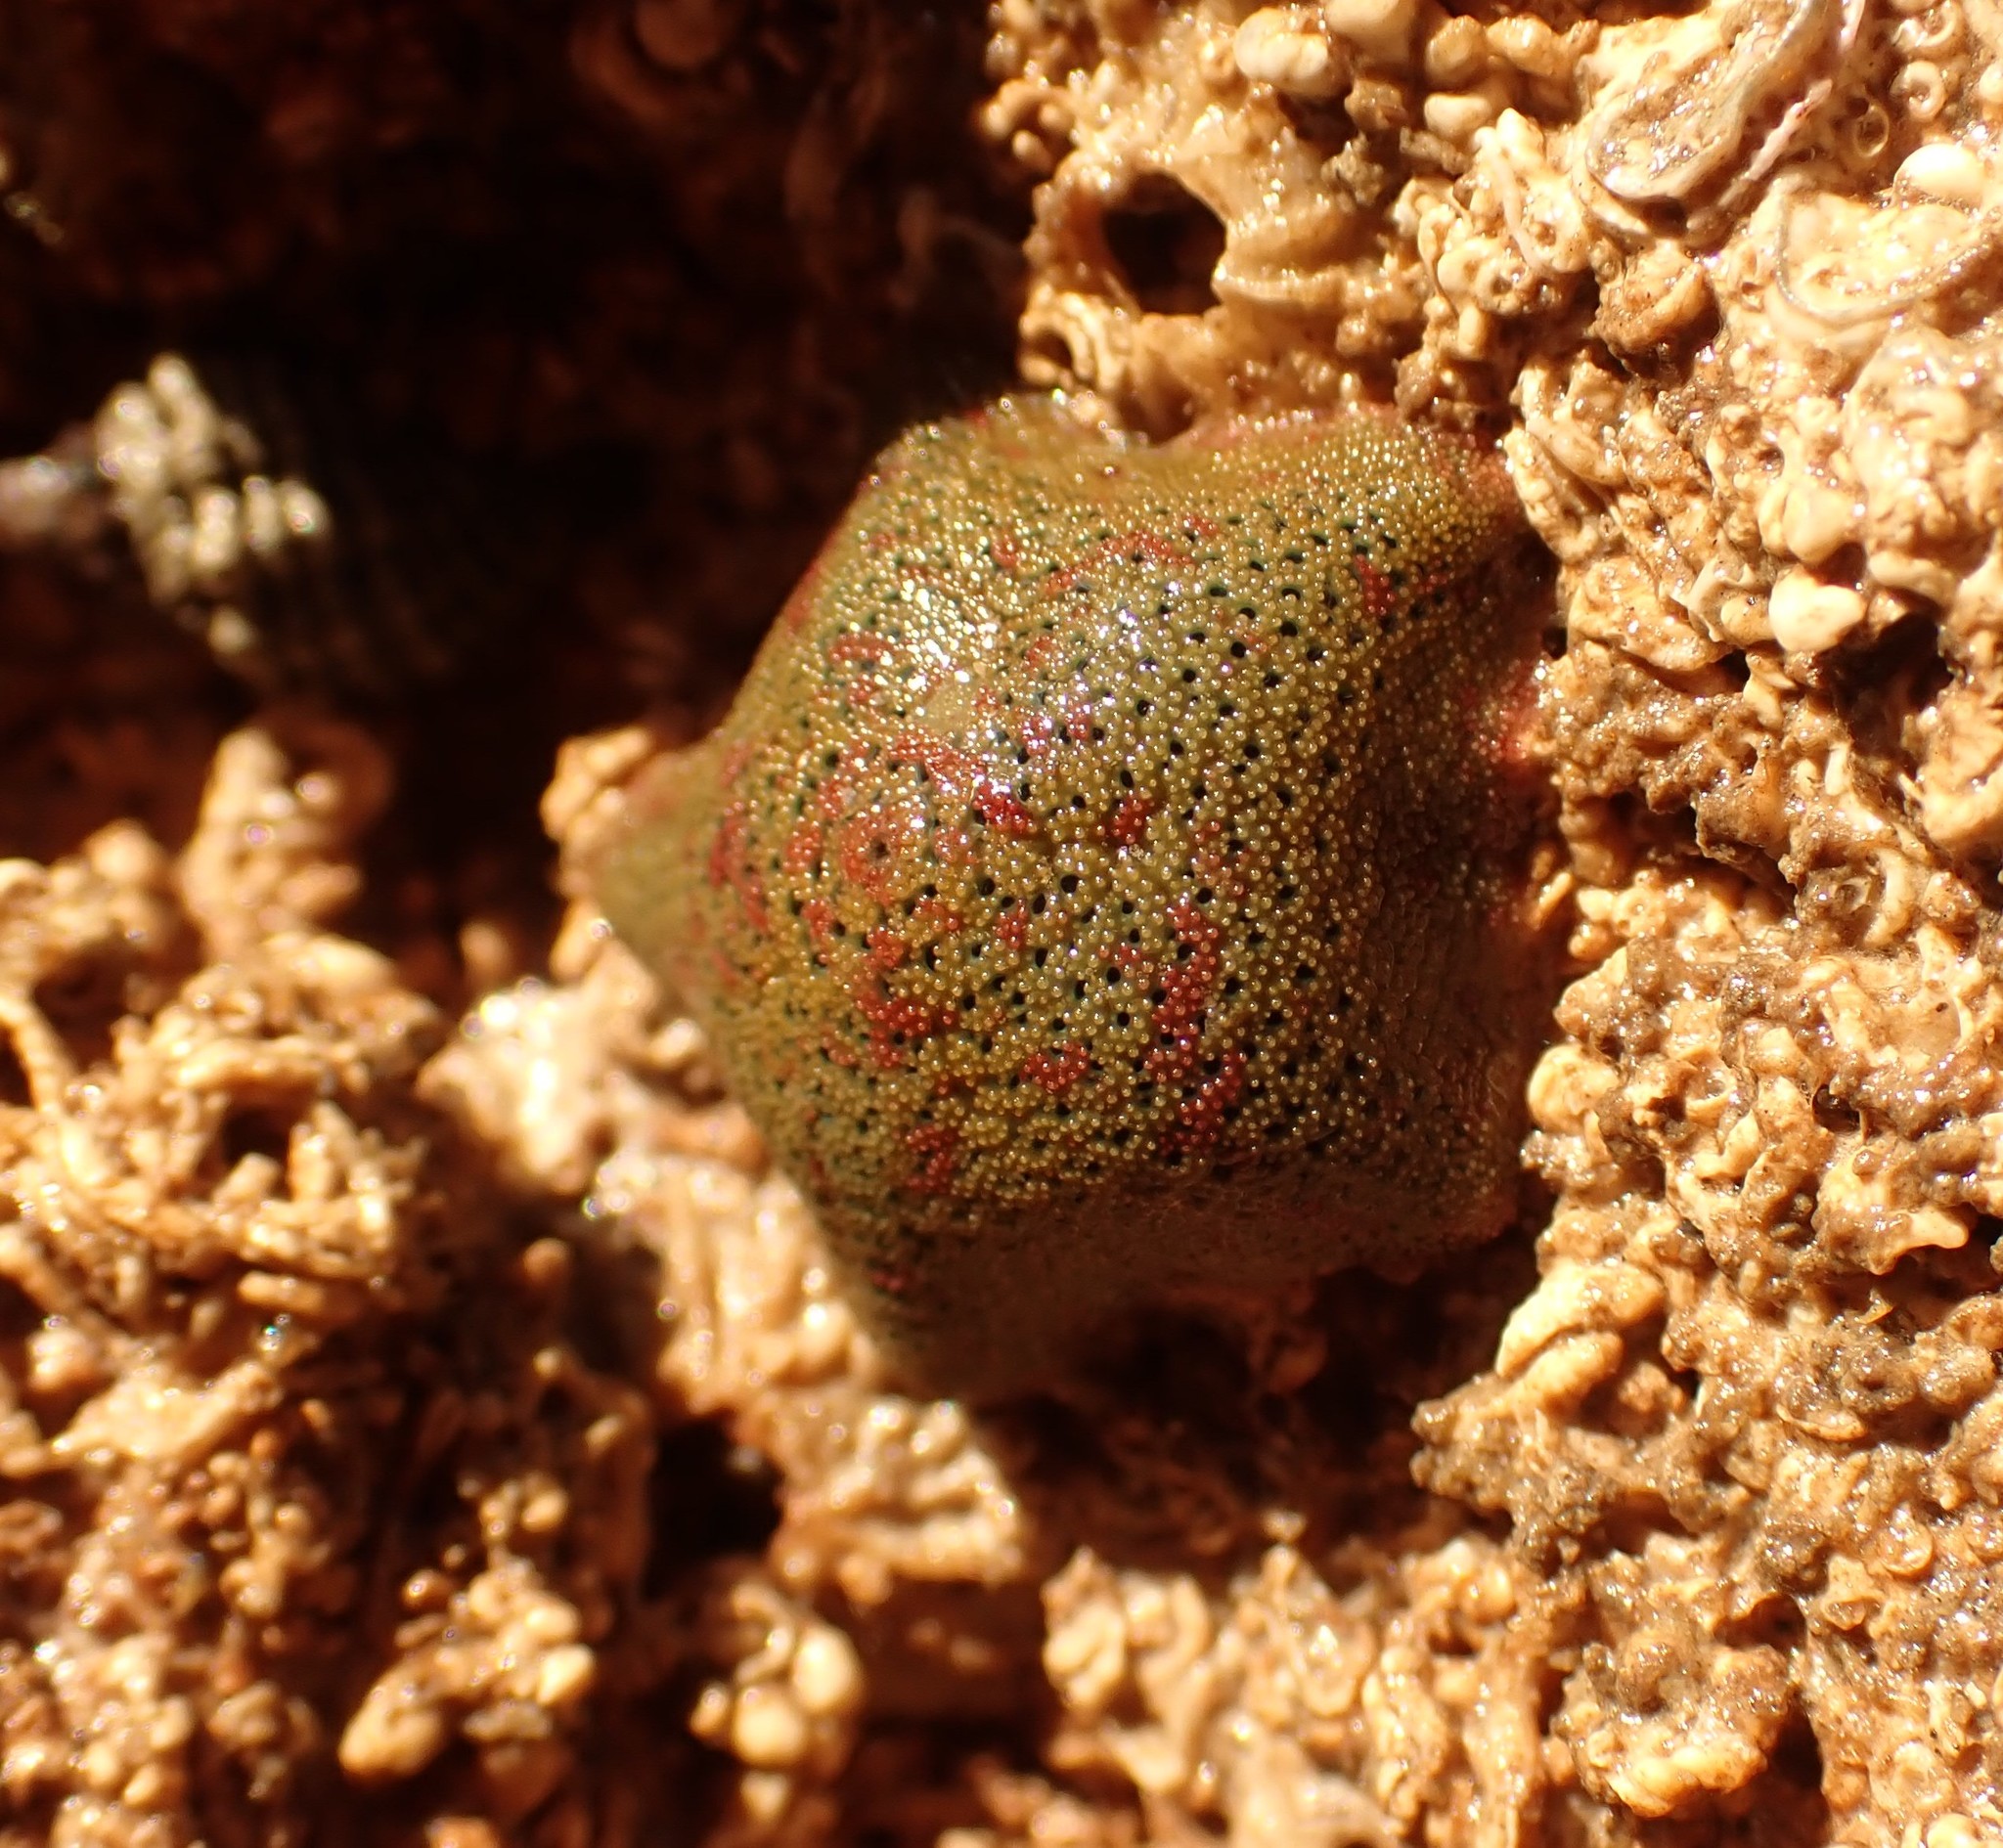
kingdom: Animalia
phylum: Echinodermata
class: Asteroidea
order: Valvatida
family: Asterinidae
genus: Parvulastra
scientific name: Parvulastra exigua
